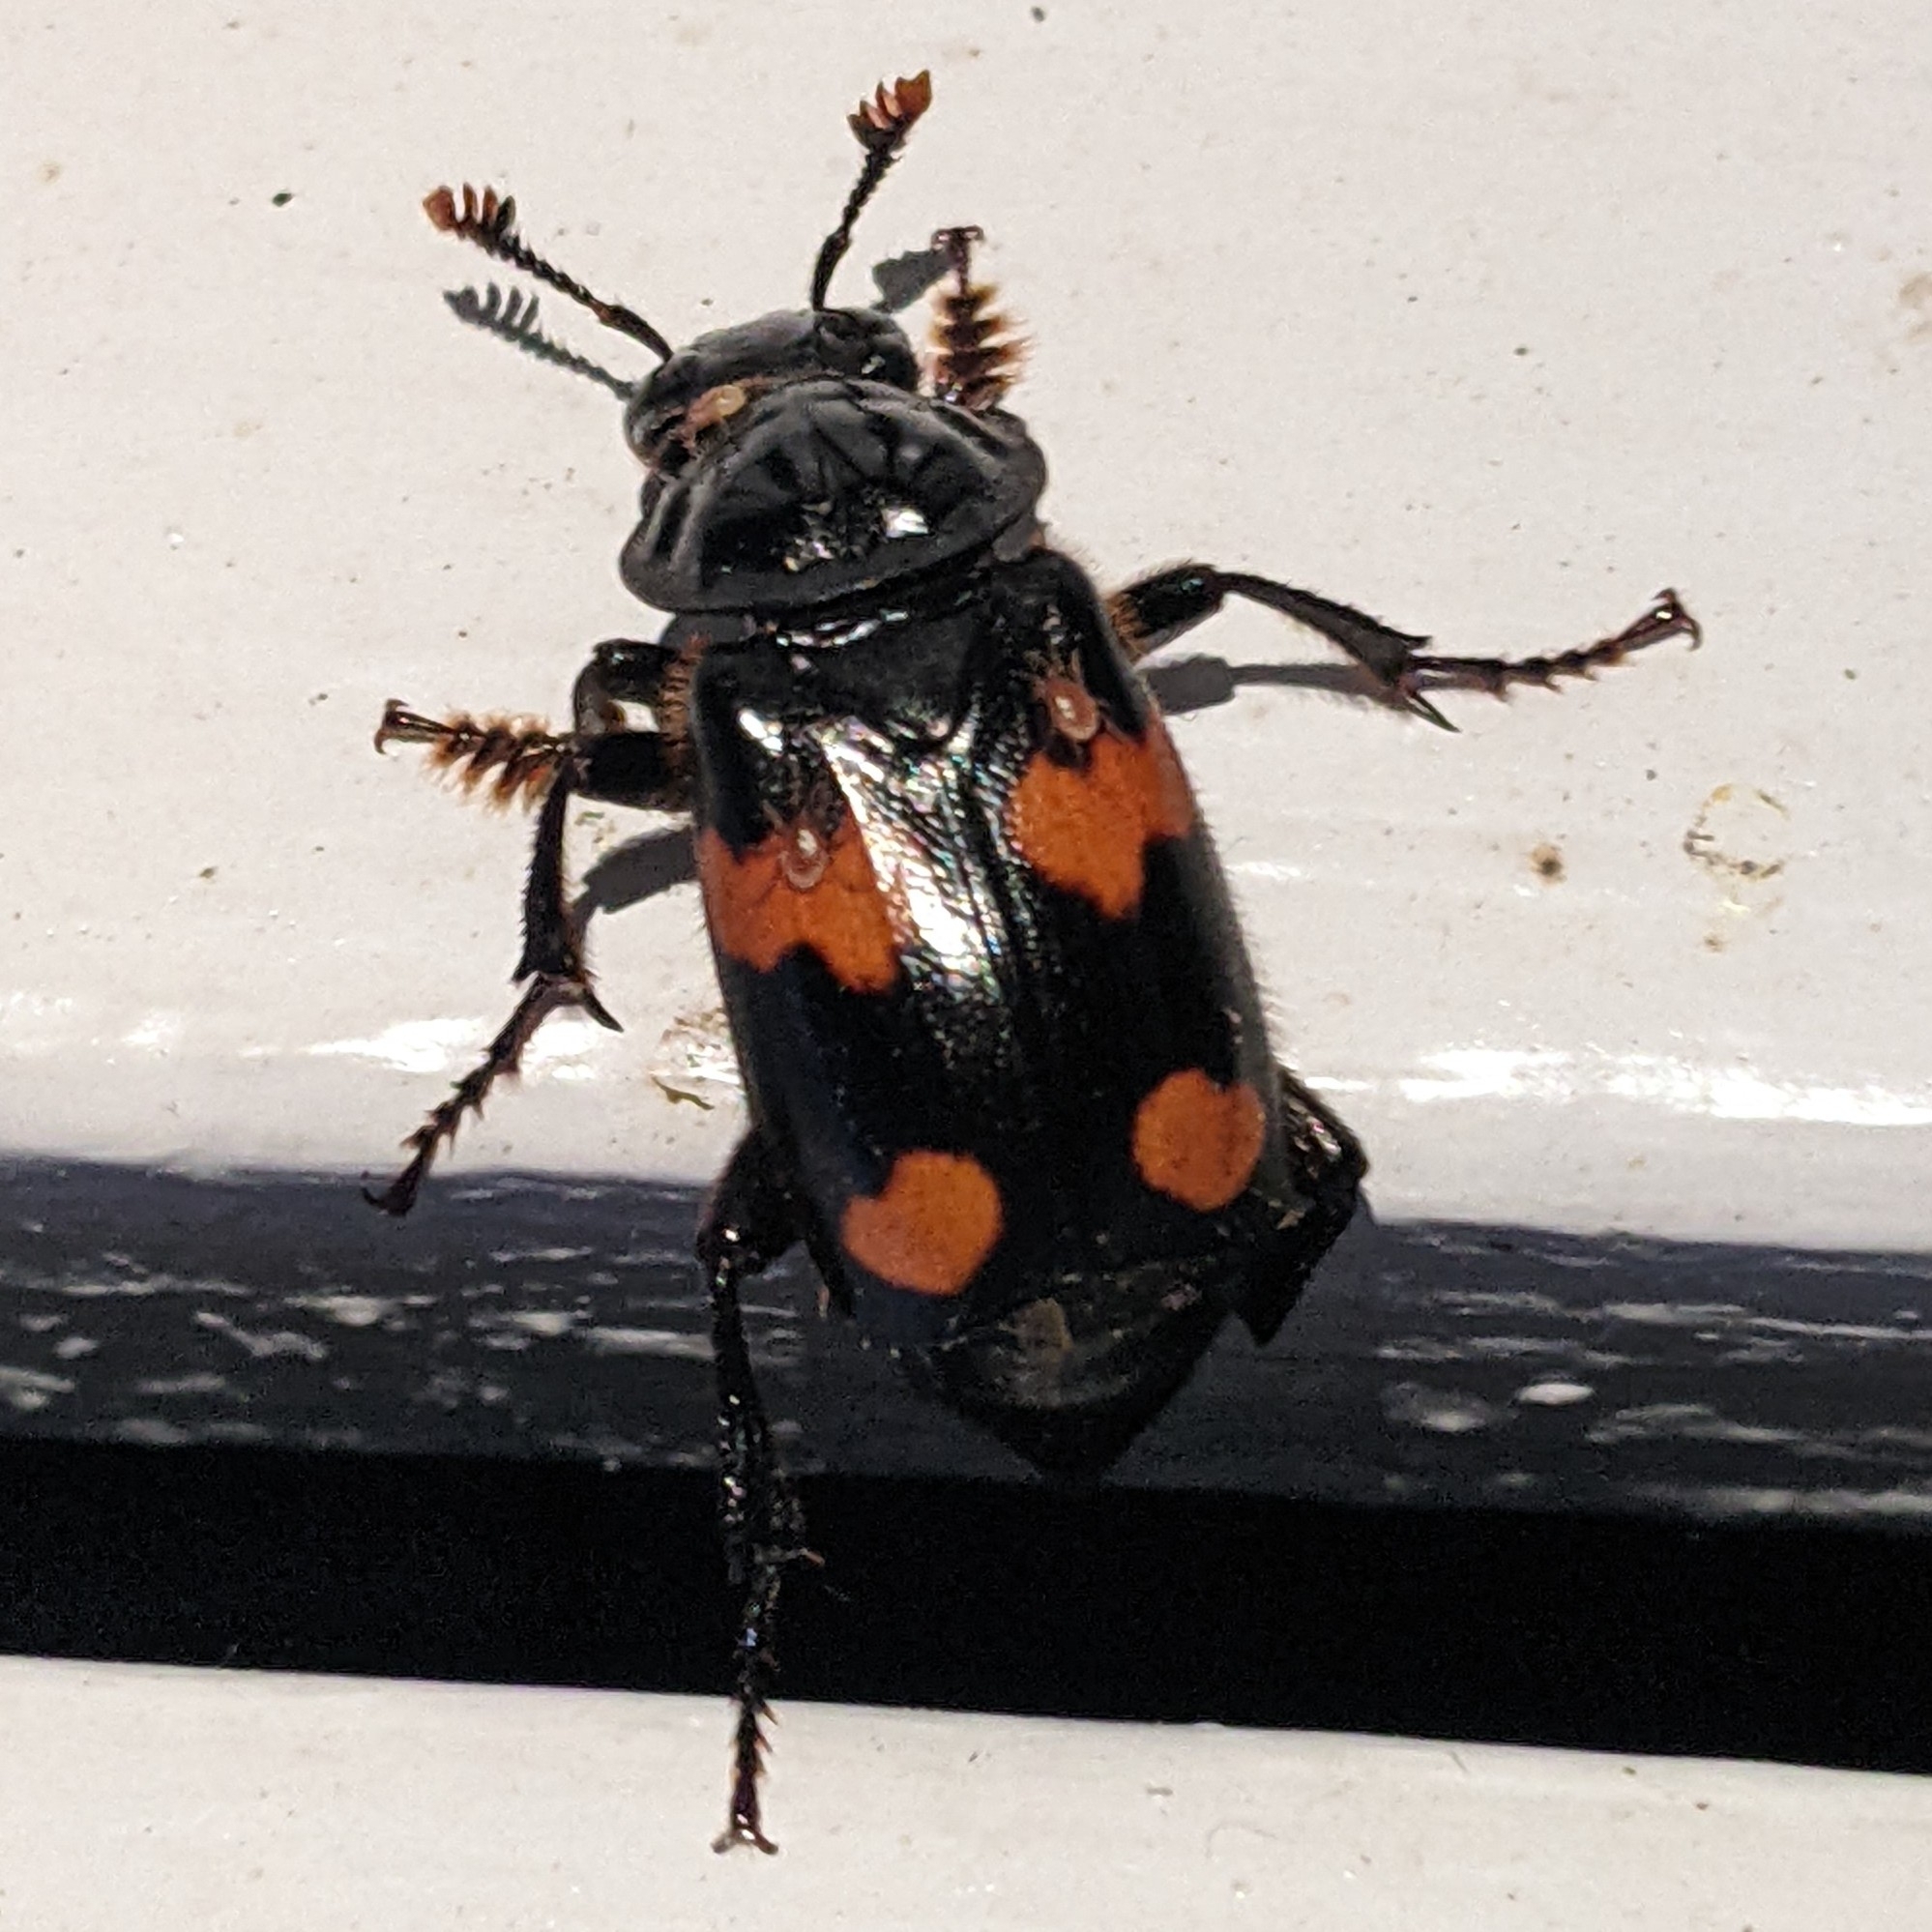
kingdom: Animalia
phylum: Arthropoda
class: Insecta
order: Coleoptera
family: Staphylinidae
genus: Nicrophorus
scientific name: Nicrophorus orbicollis
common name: Roundneck sexton beetle
